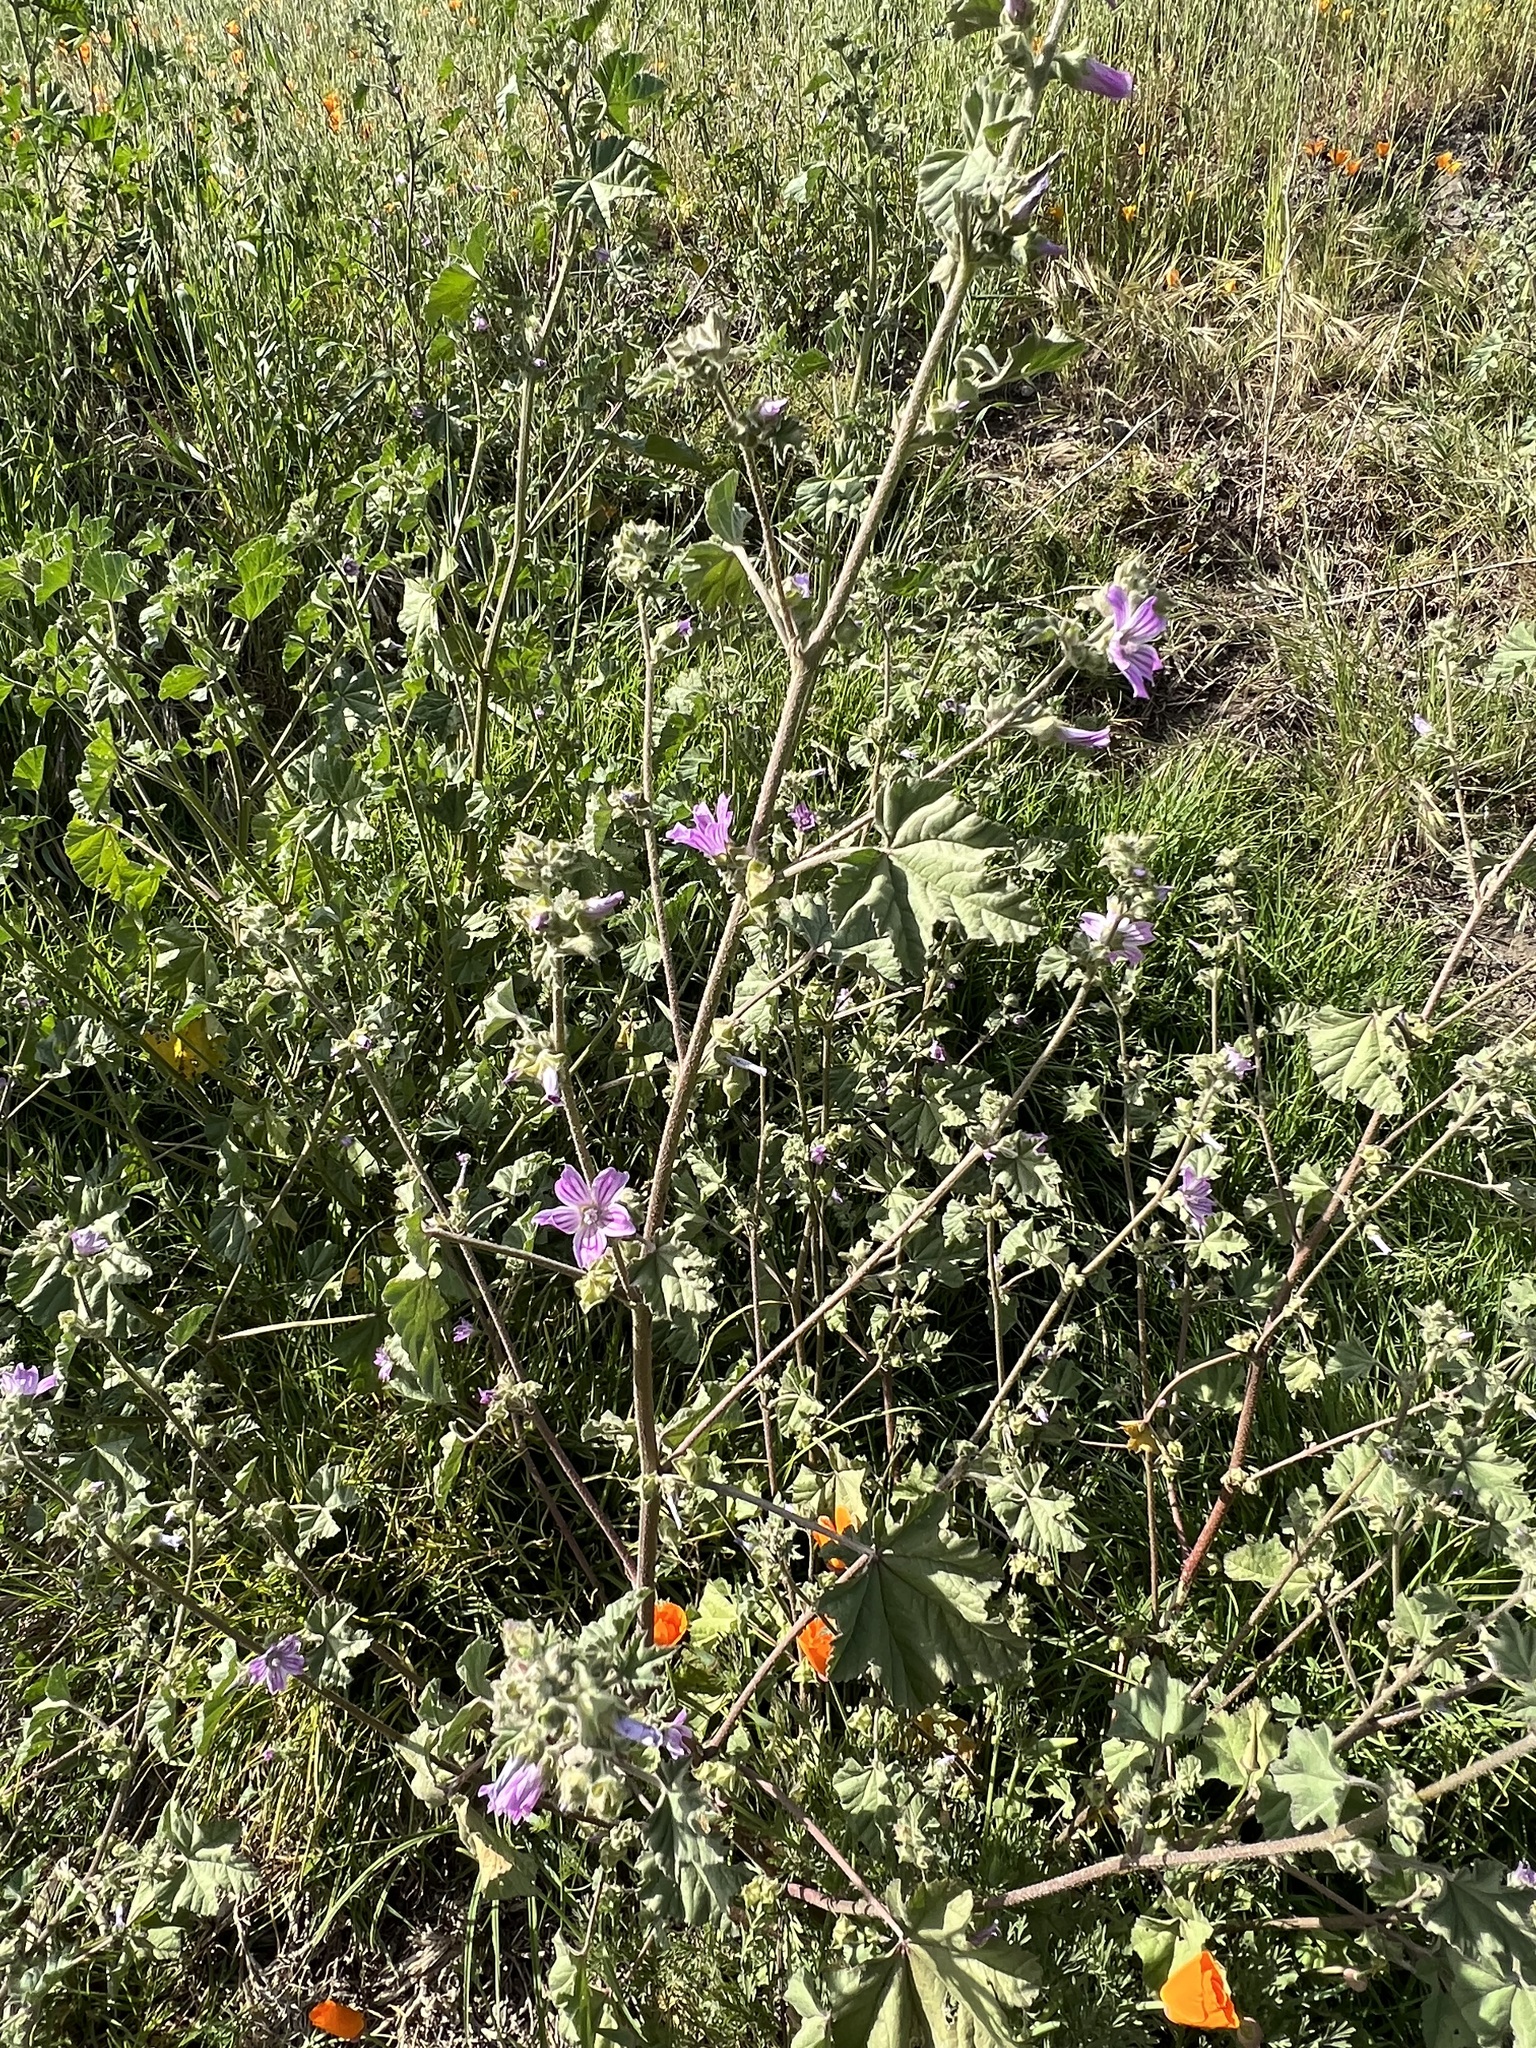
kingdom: Plantae
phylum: Tracheophyta
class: Magnoliopsida
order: Malvales
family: Malvaceae
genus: Malva
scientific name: Malva multiflora
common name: Cheeseweed
